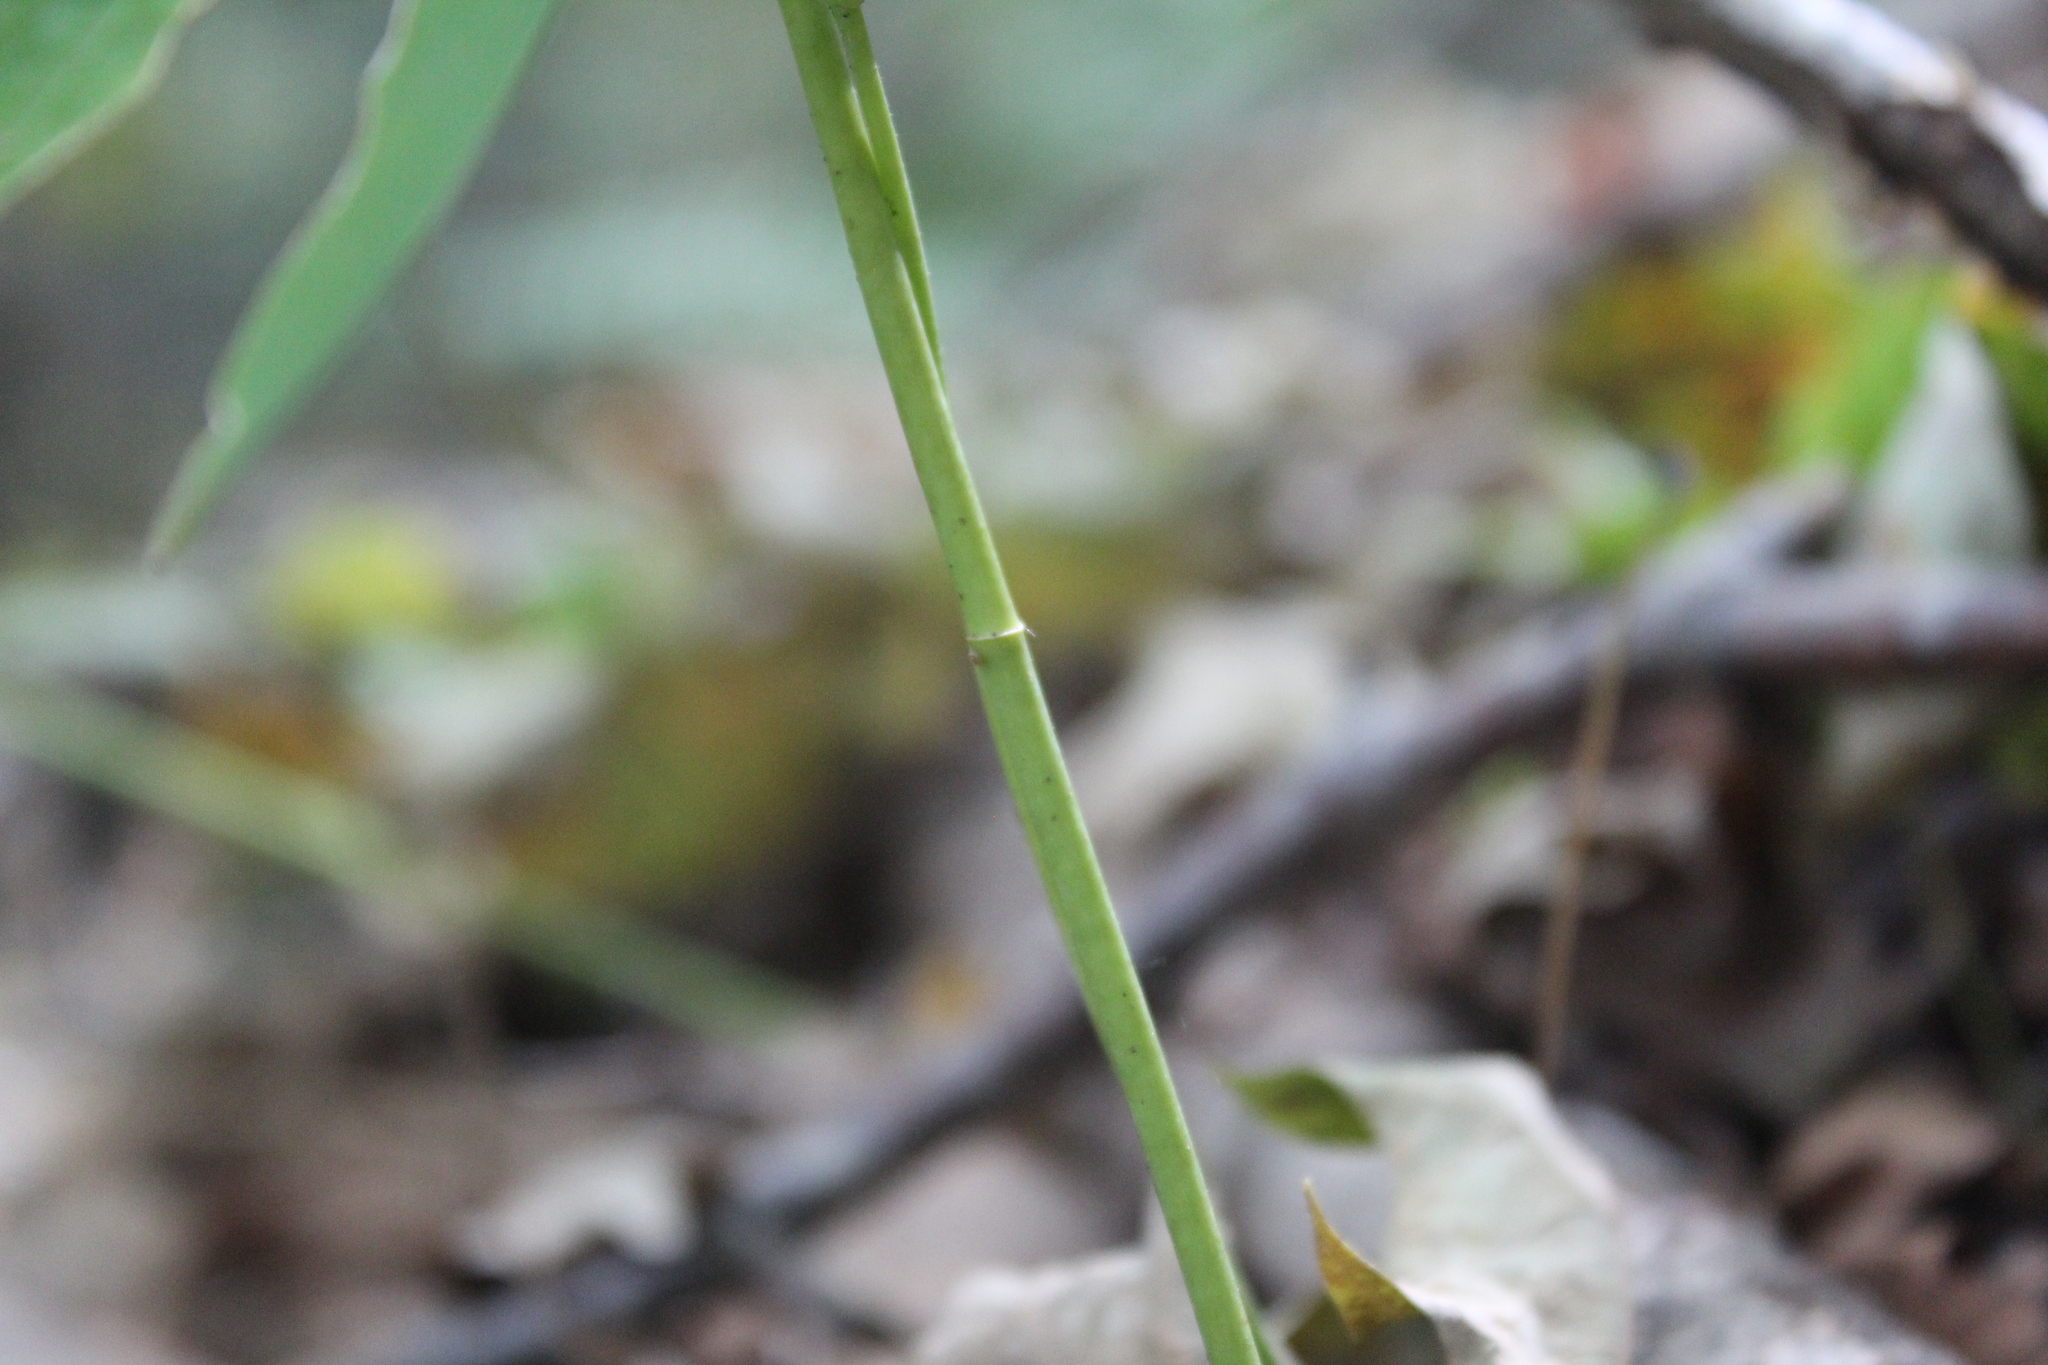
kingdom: Plantae
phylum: Tracheophyta
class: Liliopsida
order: Asparagales
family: Asparagaceae
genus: Polygonatum
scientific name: Polygonatum pubescens
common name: Downy solomon's seal
